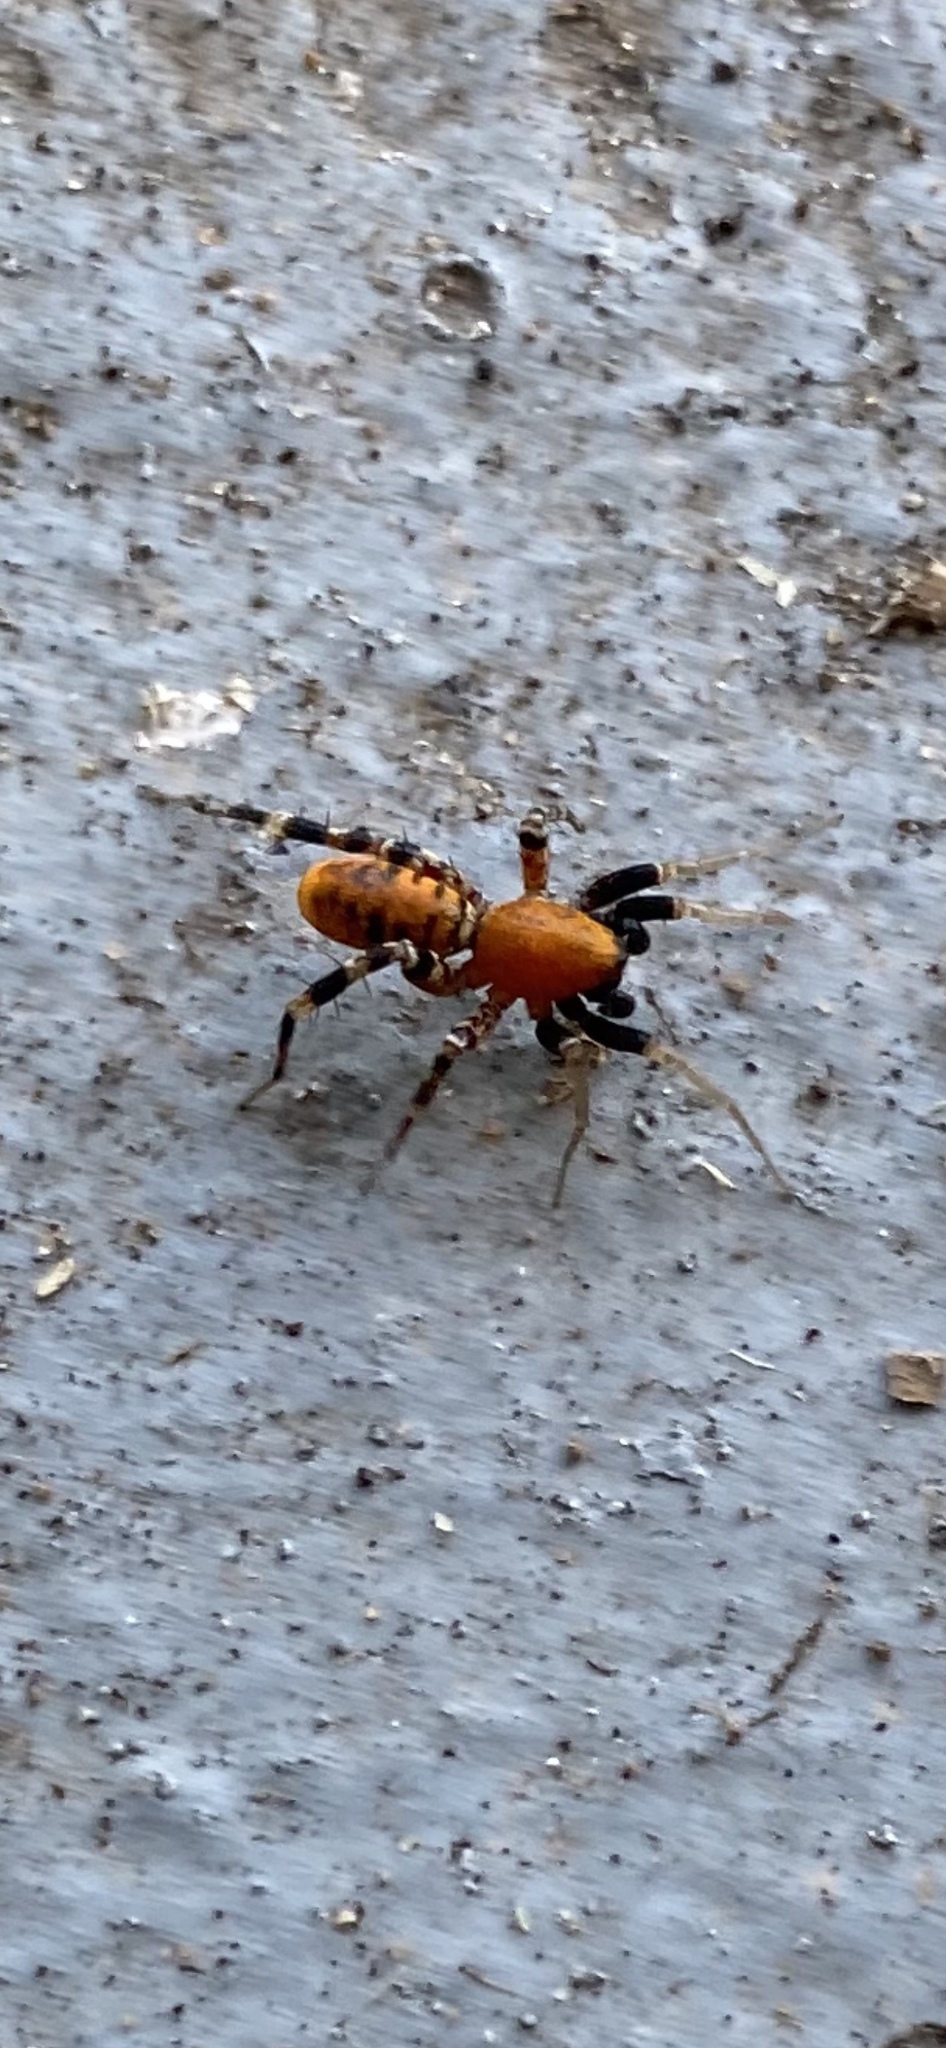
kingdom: Animalia
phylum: Arthropoda
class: Arachnida
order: Araneae
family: Corinnidae
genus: Castianeira
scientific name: Castianeira amoena
